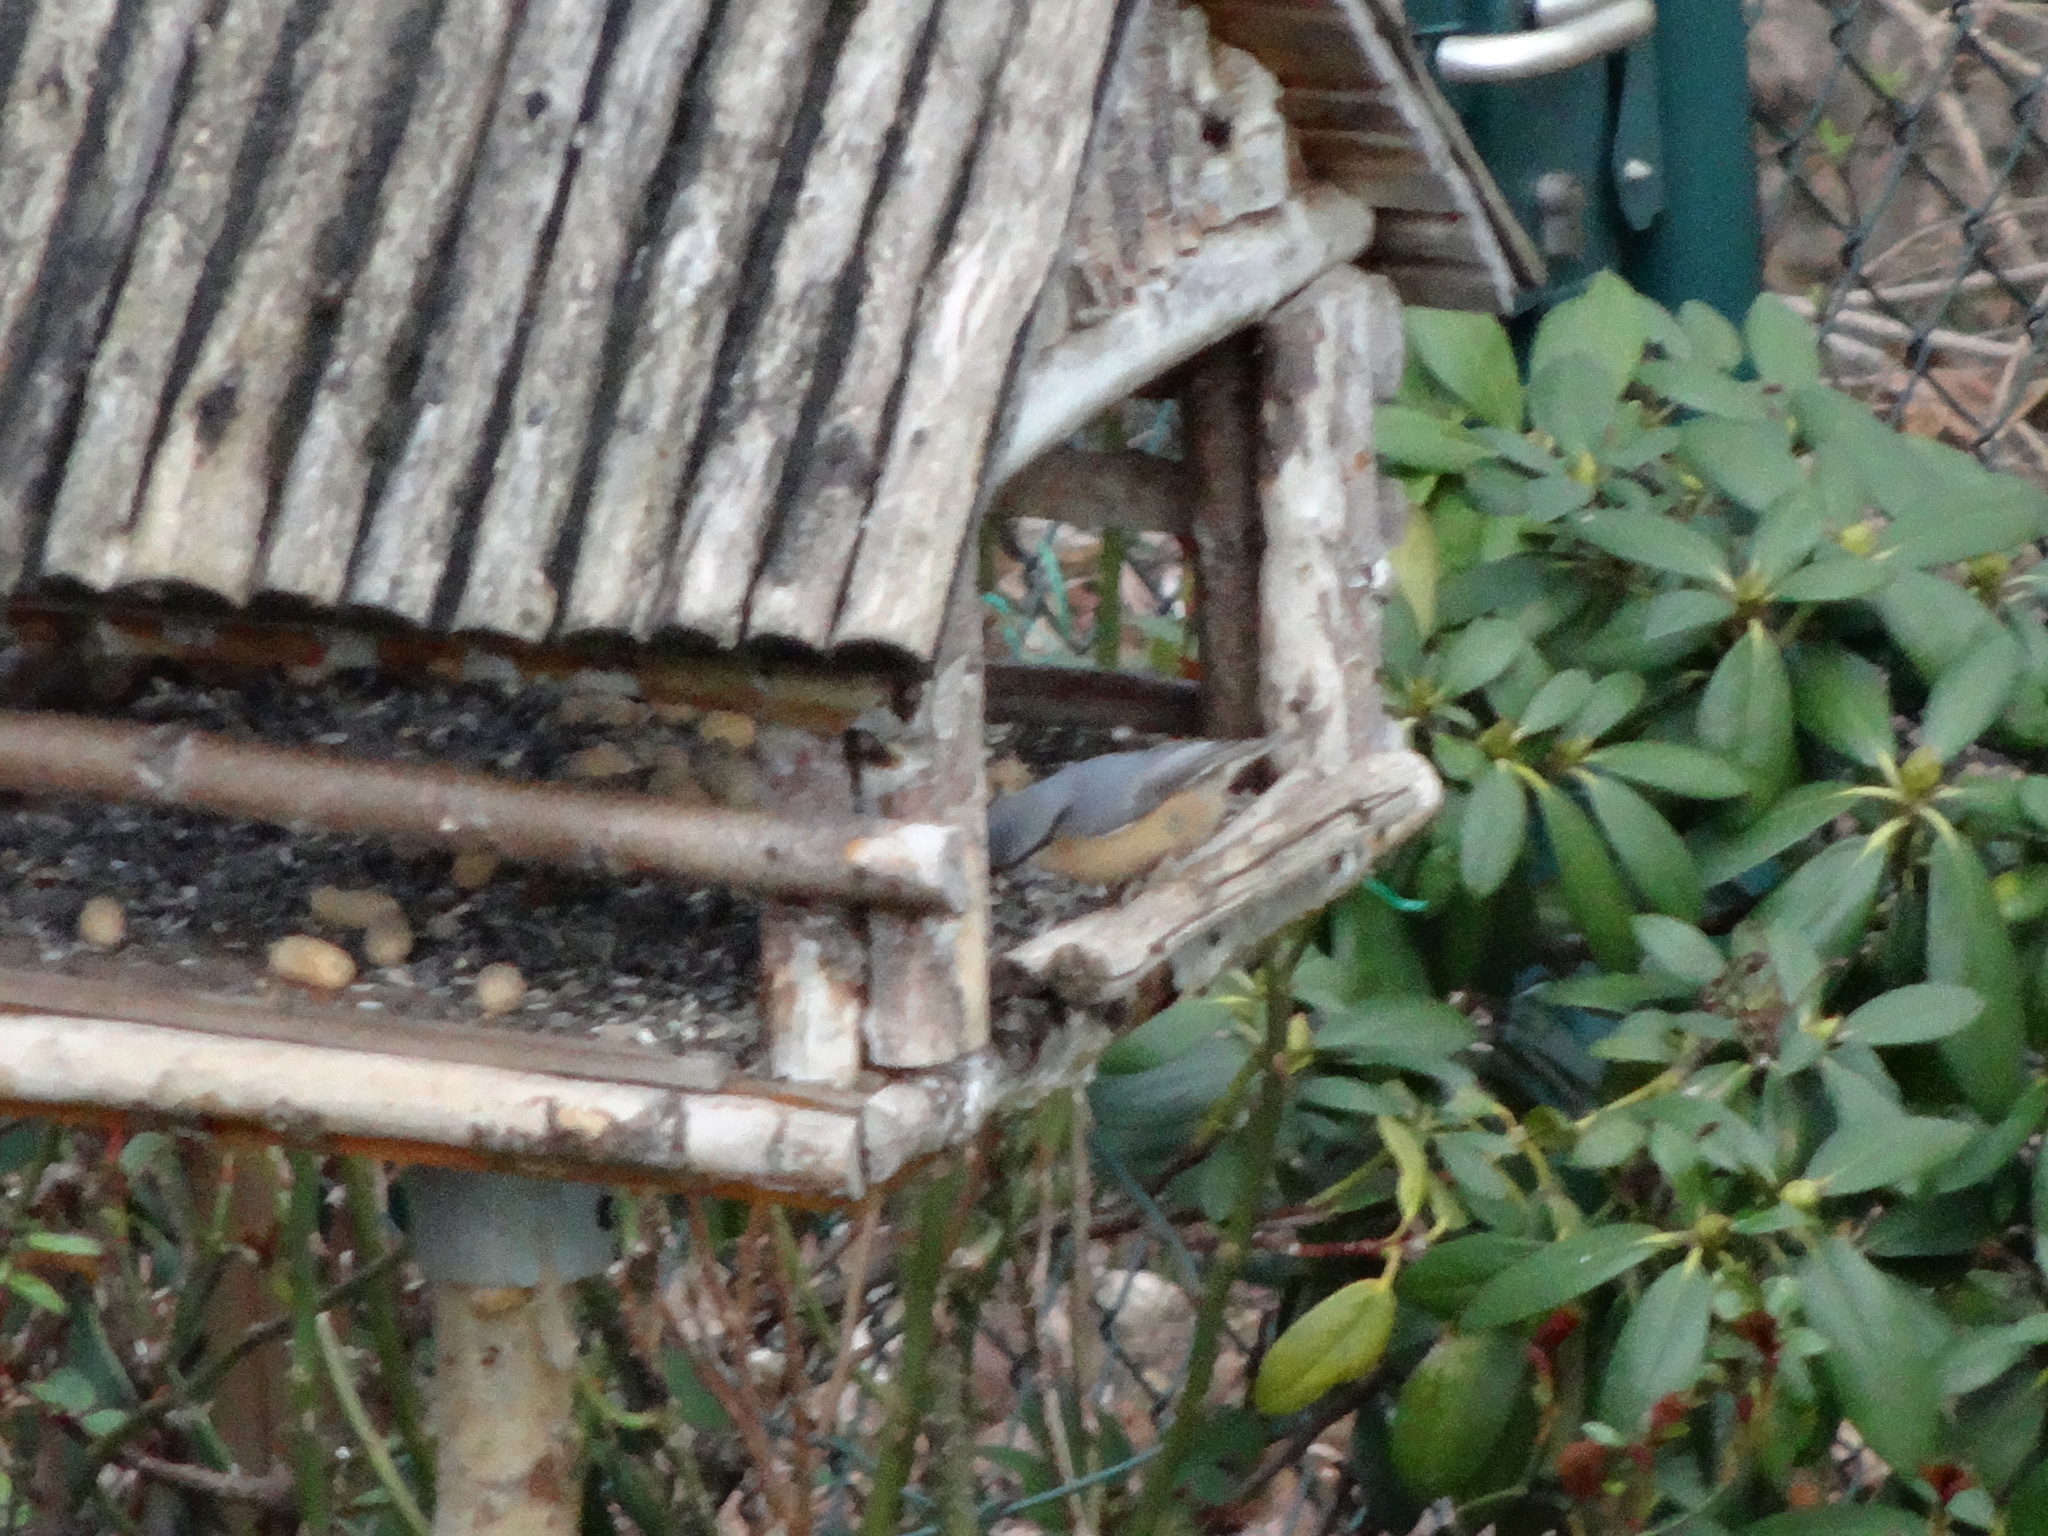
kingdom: Animalia
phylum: Chordata
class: Aves
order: Passeriformes
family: Sittidae
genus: Sitta
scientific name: Sitta europaea
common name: Eurasian nuthatch
